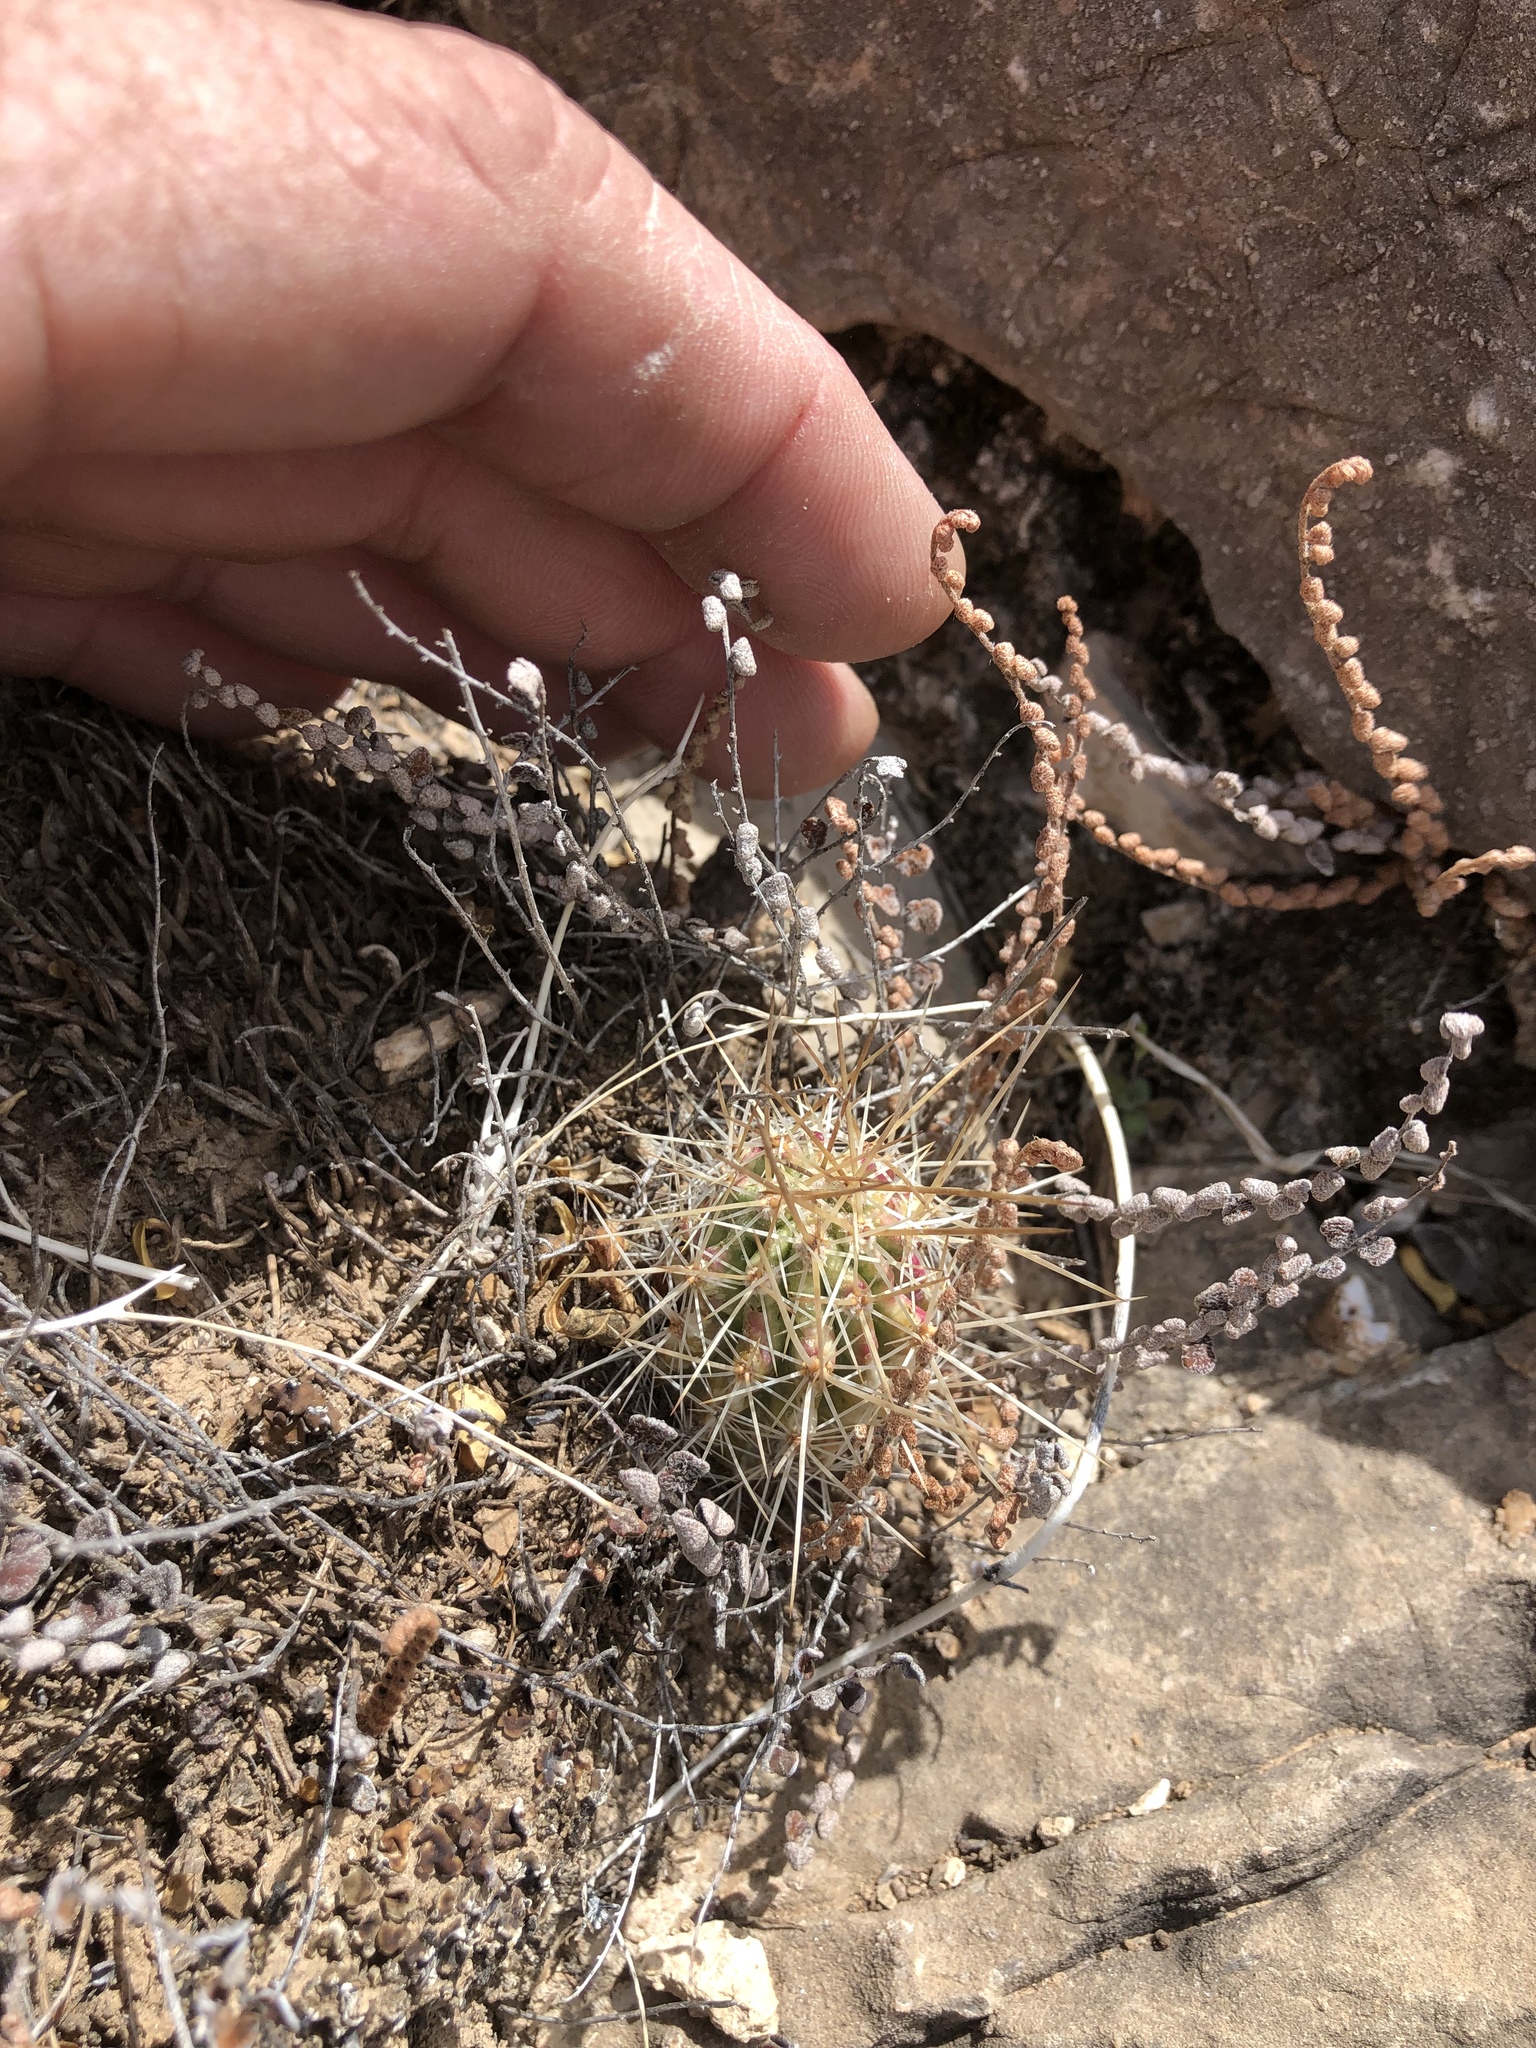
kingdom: Plantae
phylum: Tracheophyta
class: Magnoliopsida
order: Caryophyllales
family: Cactaceae
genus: Echinocereus
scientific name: Echinocereus stramineus
